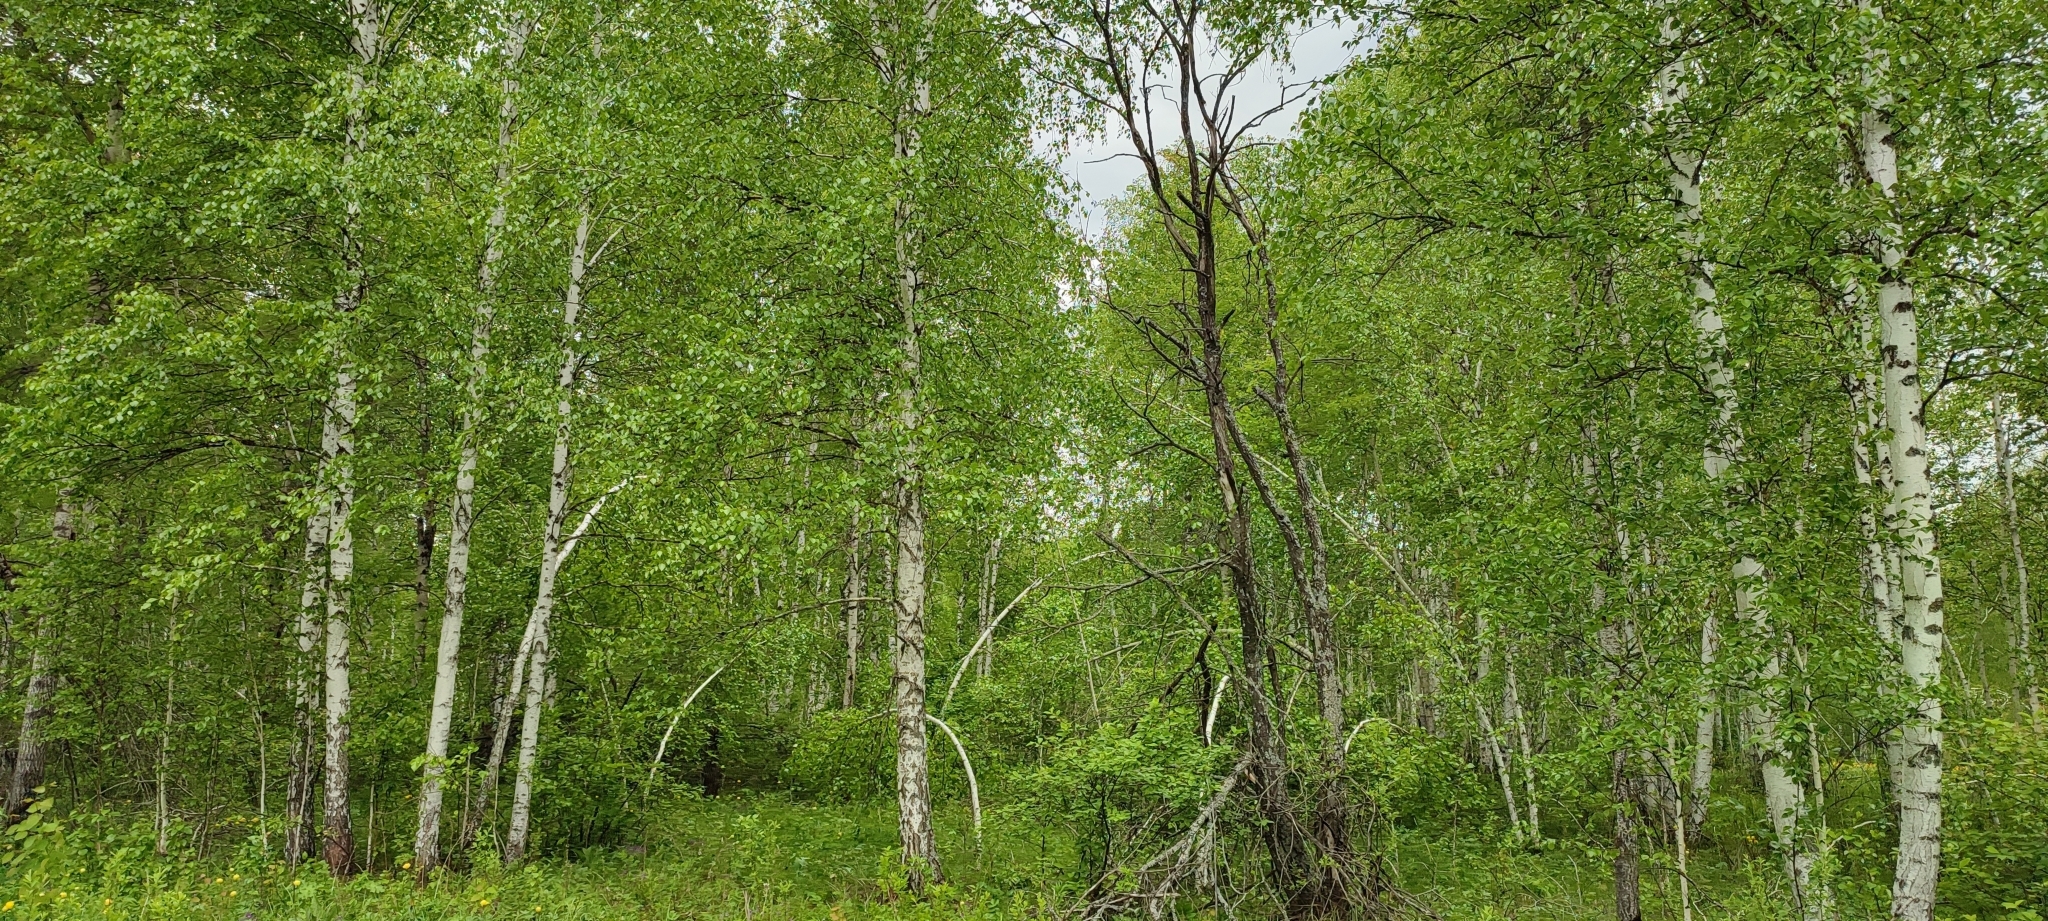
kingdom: Plantae
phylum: Tracheophyta
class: Magnoliopsida
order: Fagales
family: Betulaceae
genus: Betula
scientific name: Betula pendula
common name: Silver birch
